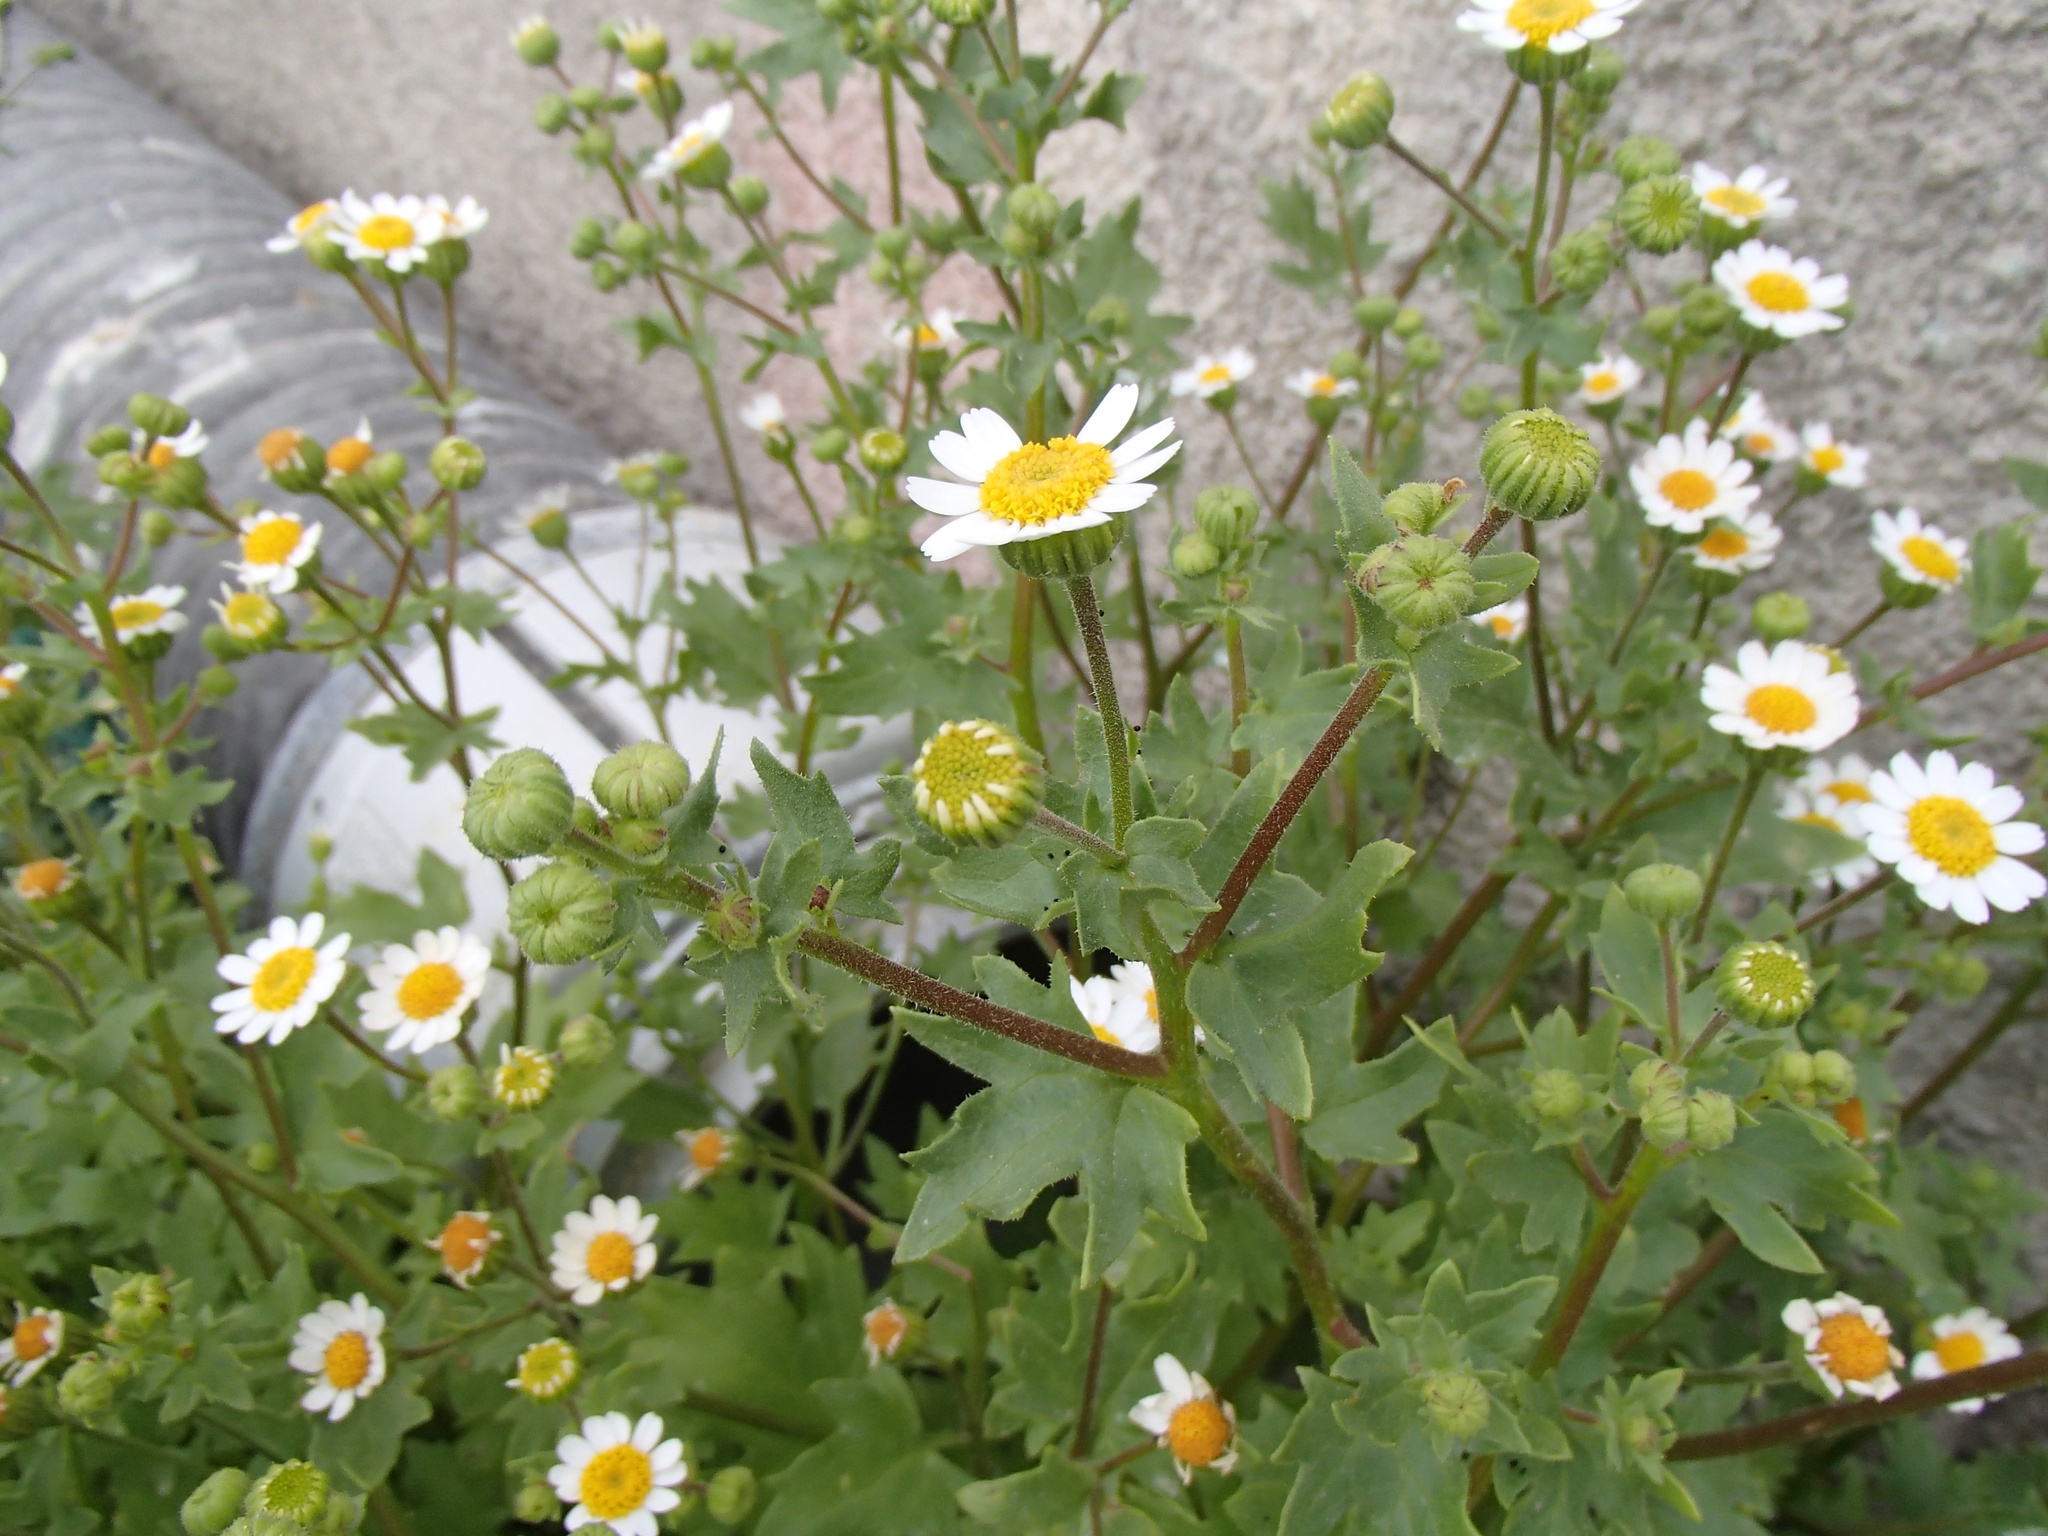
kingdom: Plantae
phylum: Tracheophyta
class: Magnoliopsida
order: Asterales
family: Asteraceae
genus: Laphamia
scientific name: Laphamia emoryi
